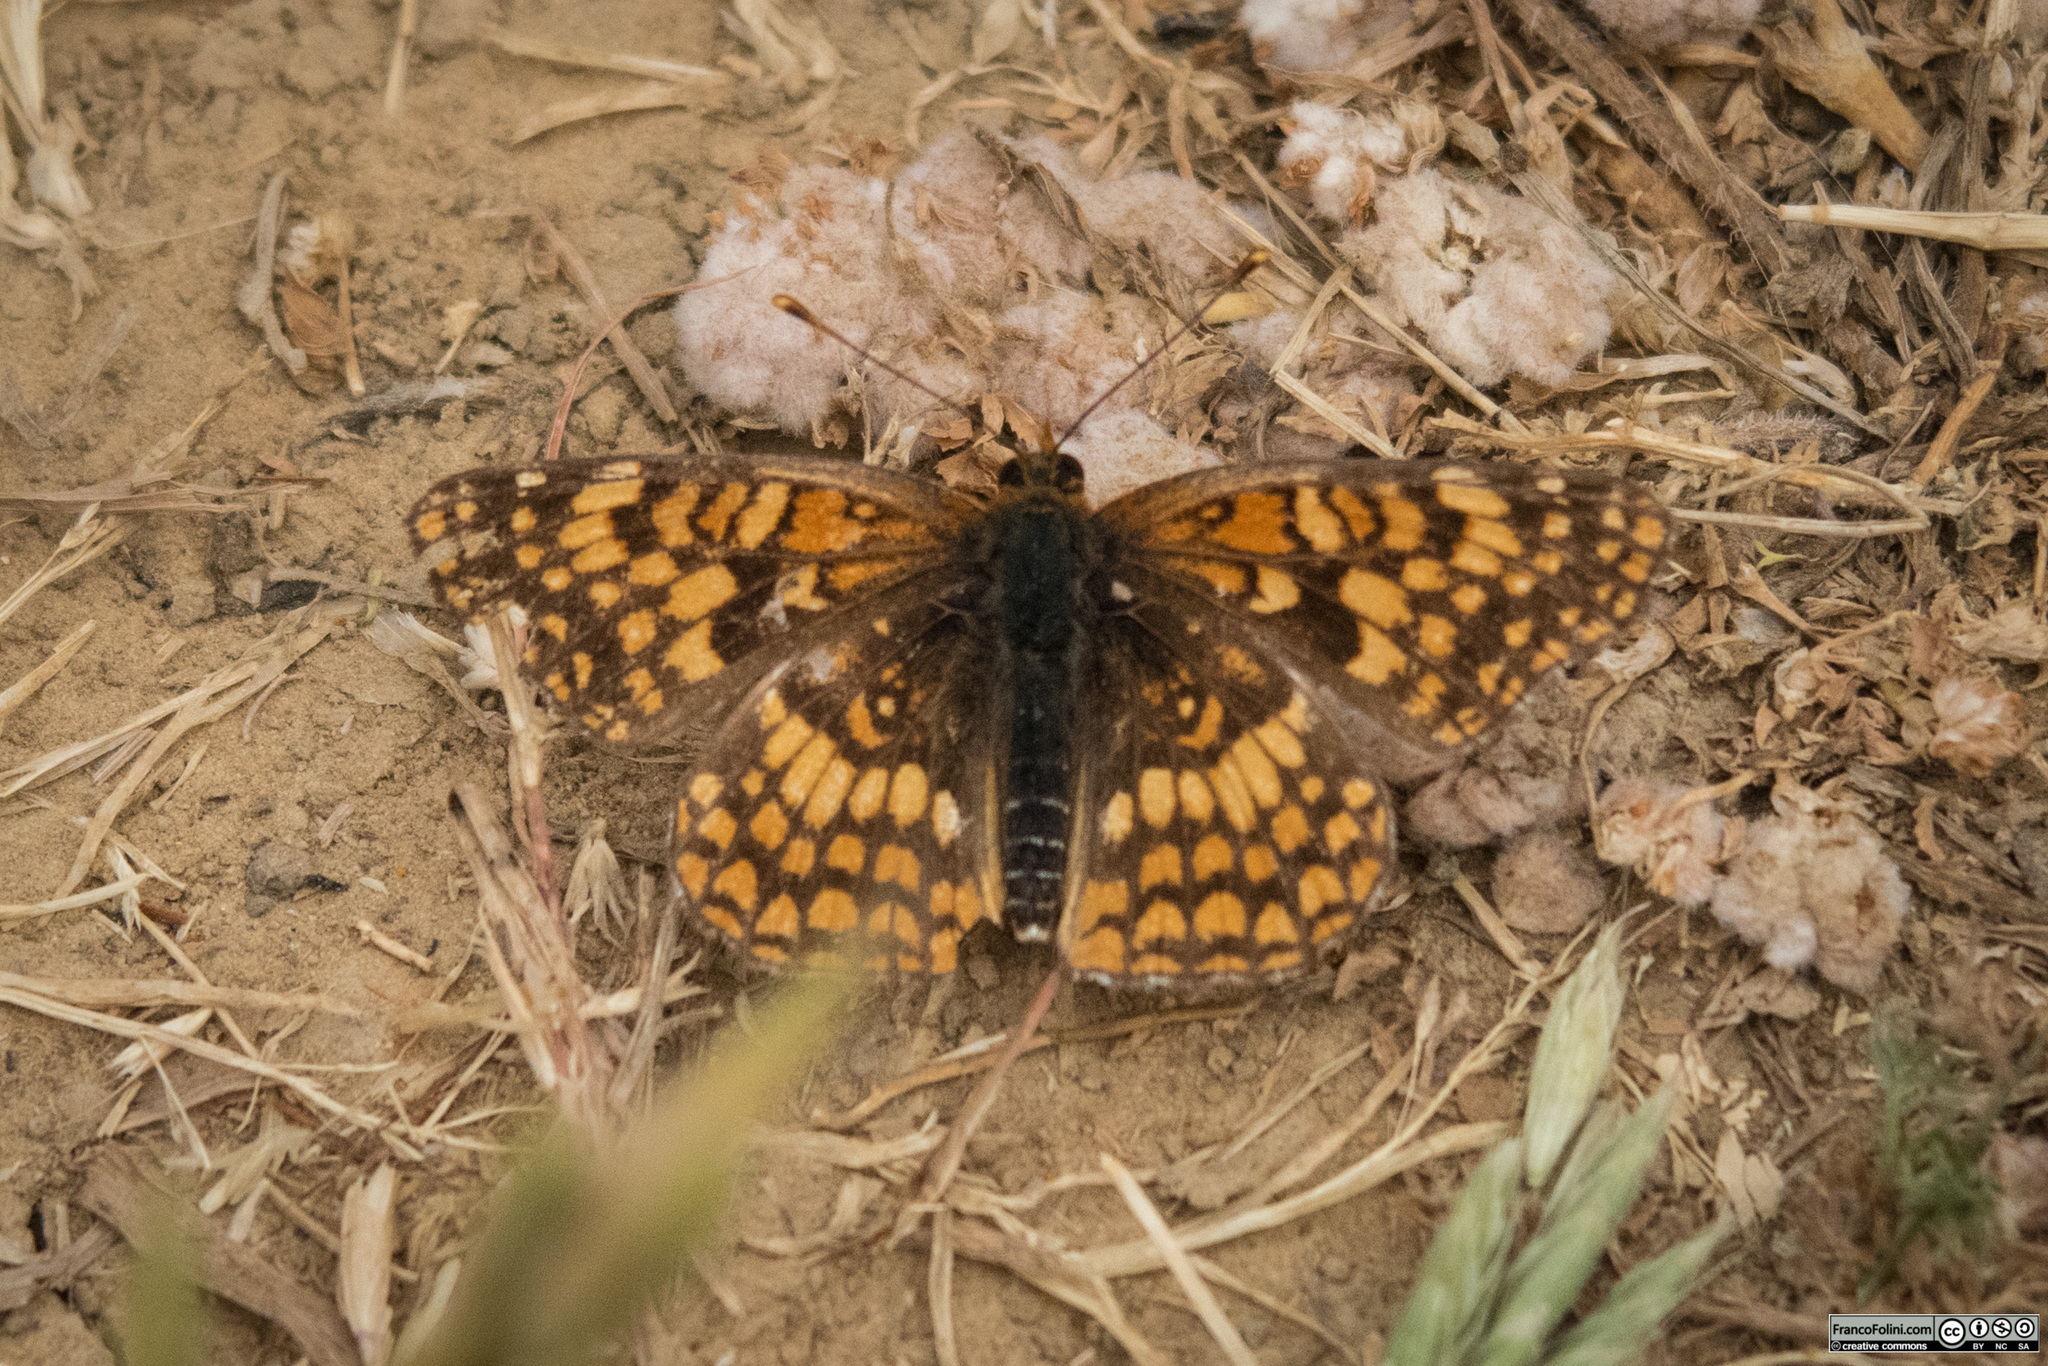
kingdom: Animalia
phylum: Arthropoda
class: Insecta
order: Lepidoptera
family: Nymphalidae
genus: Chlosyne
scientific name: Chlosyne palla
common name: Northern checkerspot
